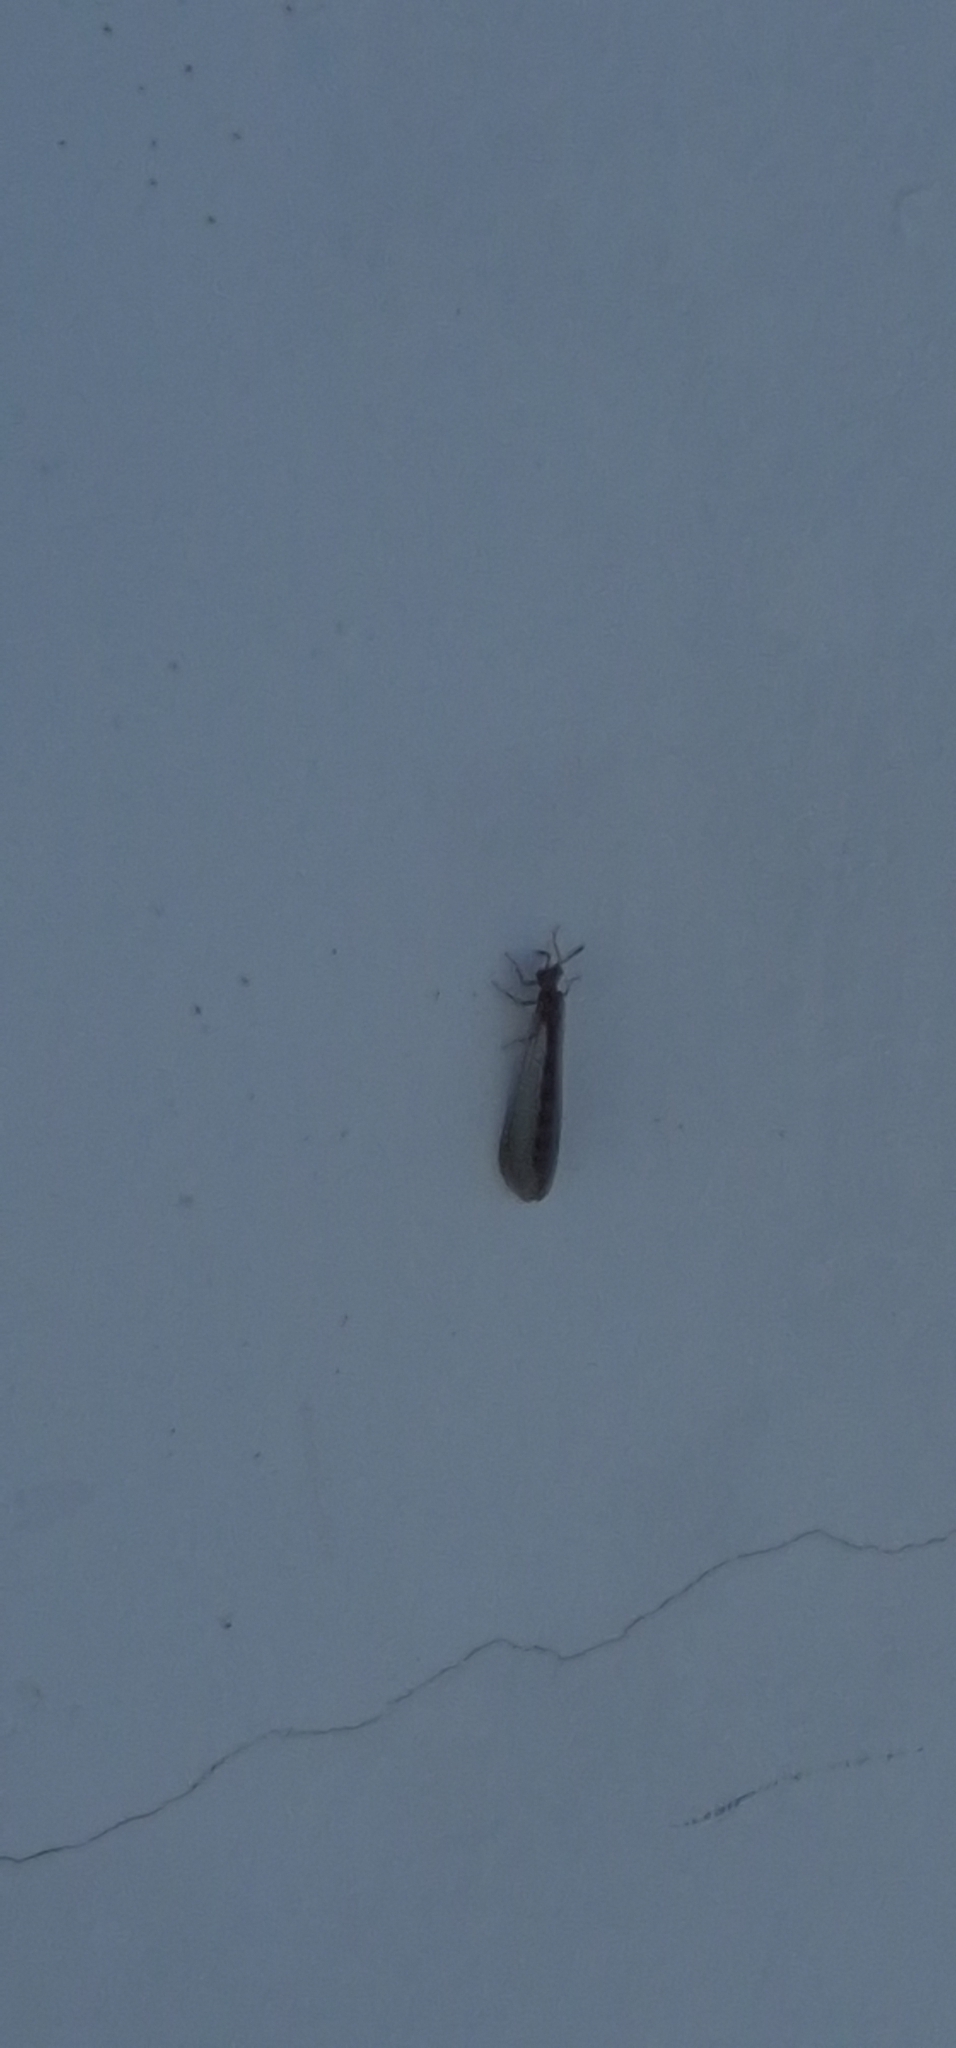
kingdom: Animalia
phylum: Arthropoda
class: Insecta
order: Neuroptera
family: Myrmeleontidae
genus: Myrmeleon
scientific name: Myrmeleon alternans
